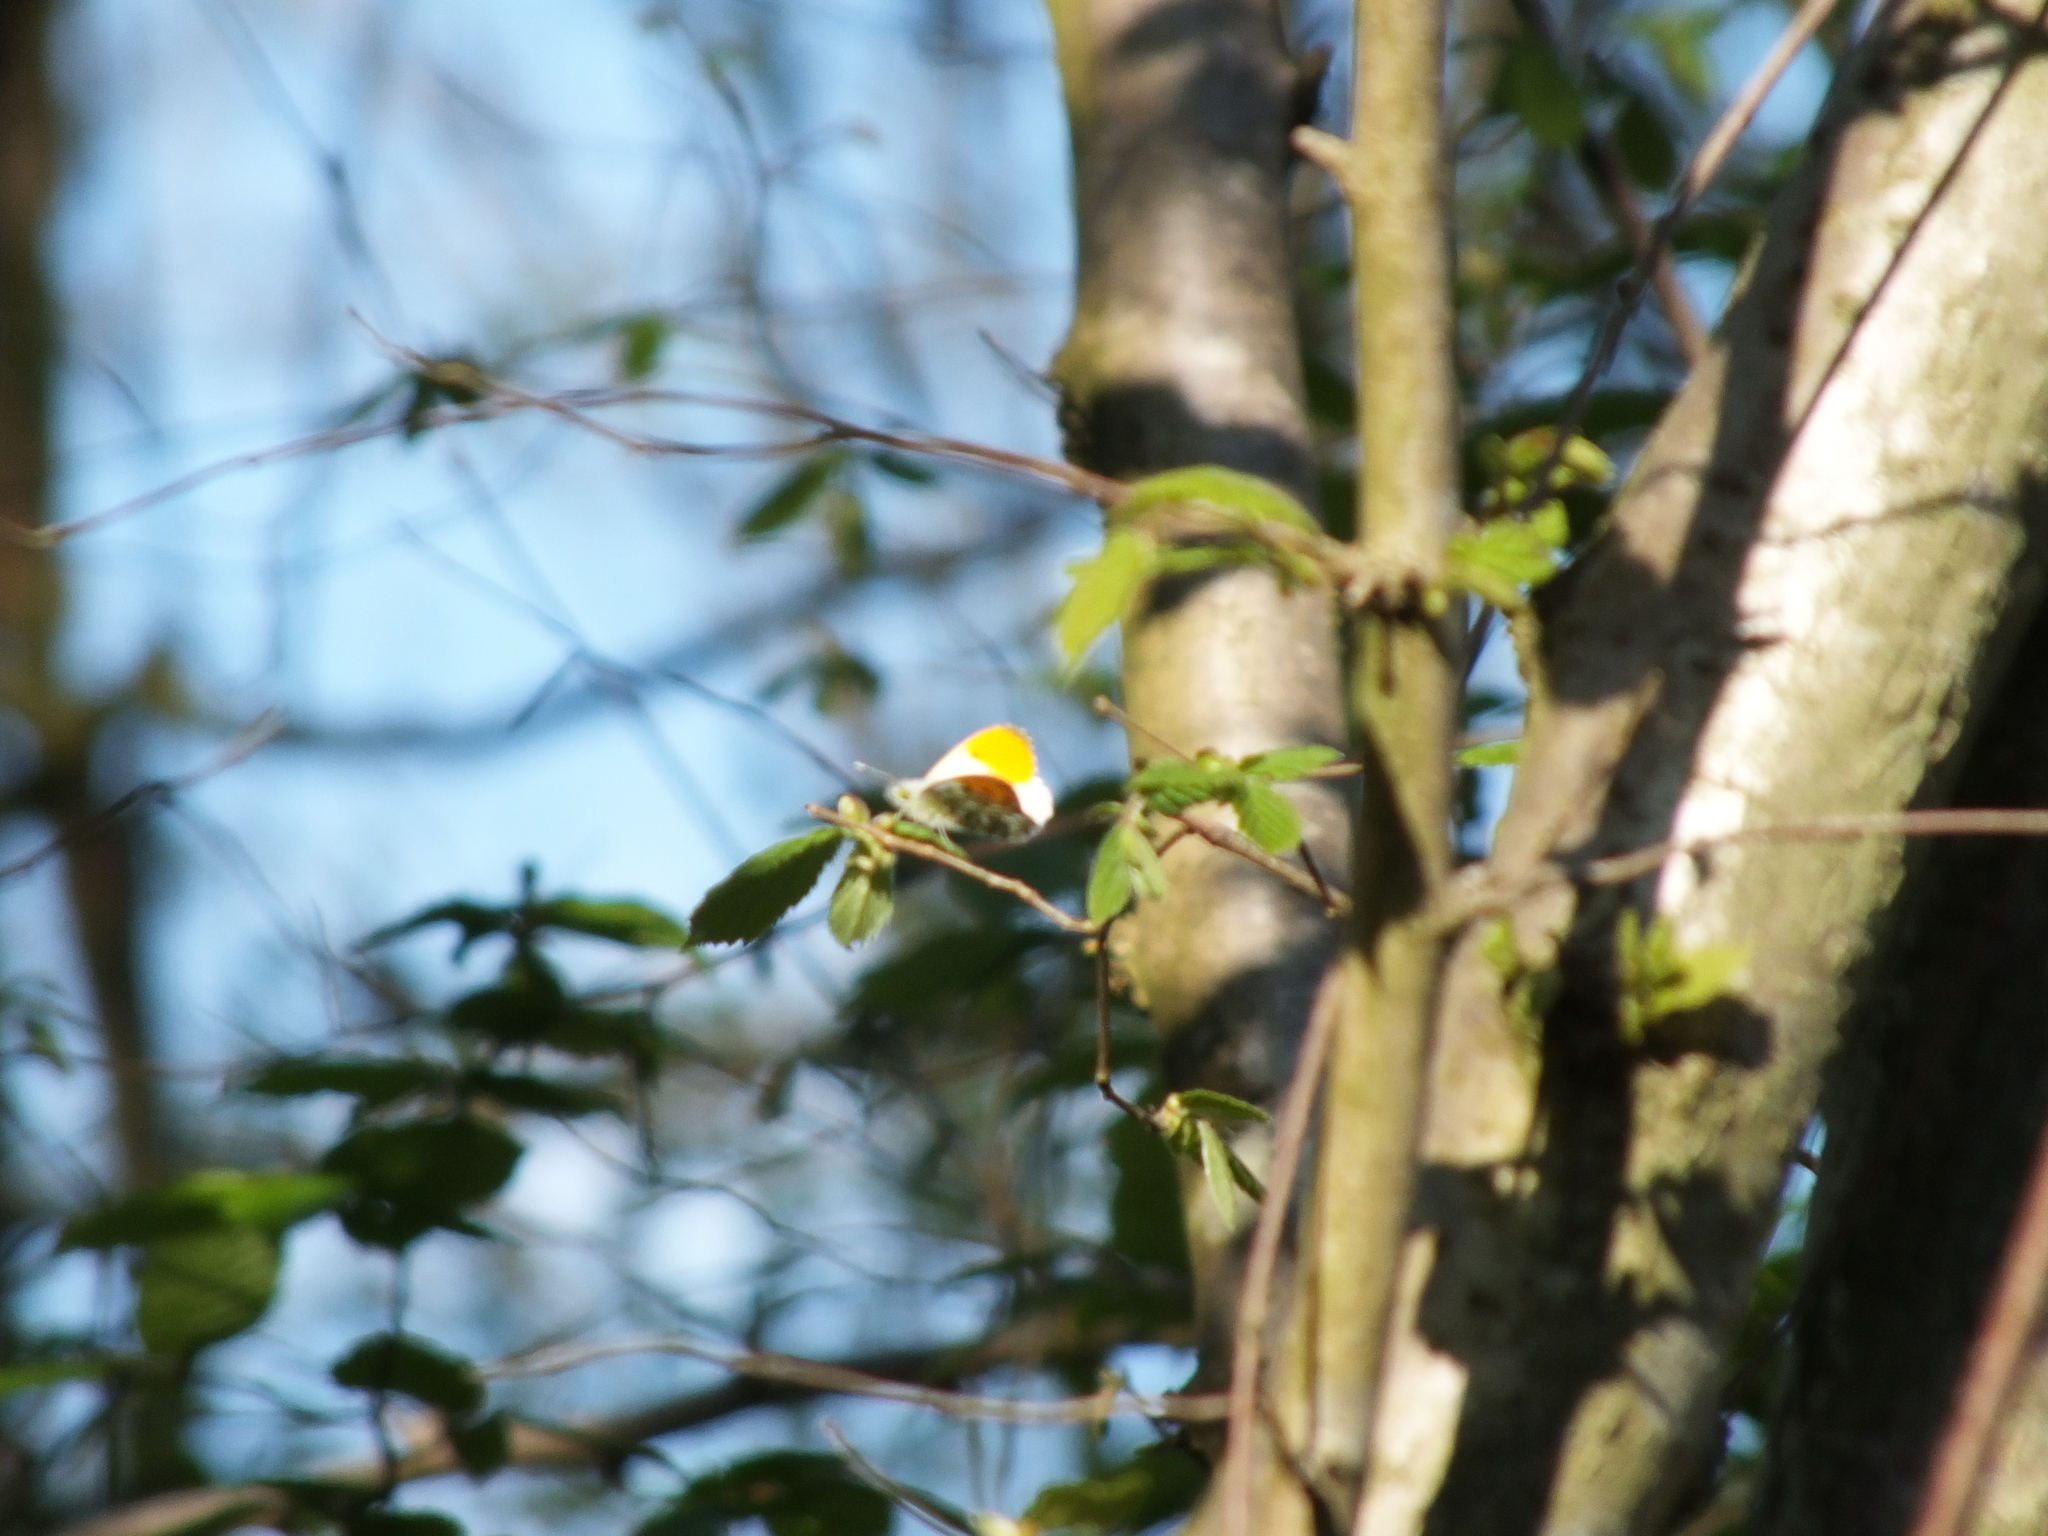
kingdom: Animalia
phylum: Arthropoda
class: Insecta
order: Lepidoptera
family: Pieridae
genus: Anthocharis
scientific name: Anthocharis cardamines
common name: Orange-tip
